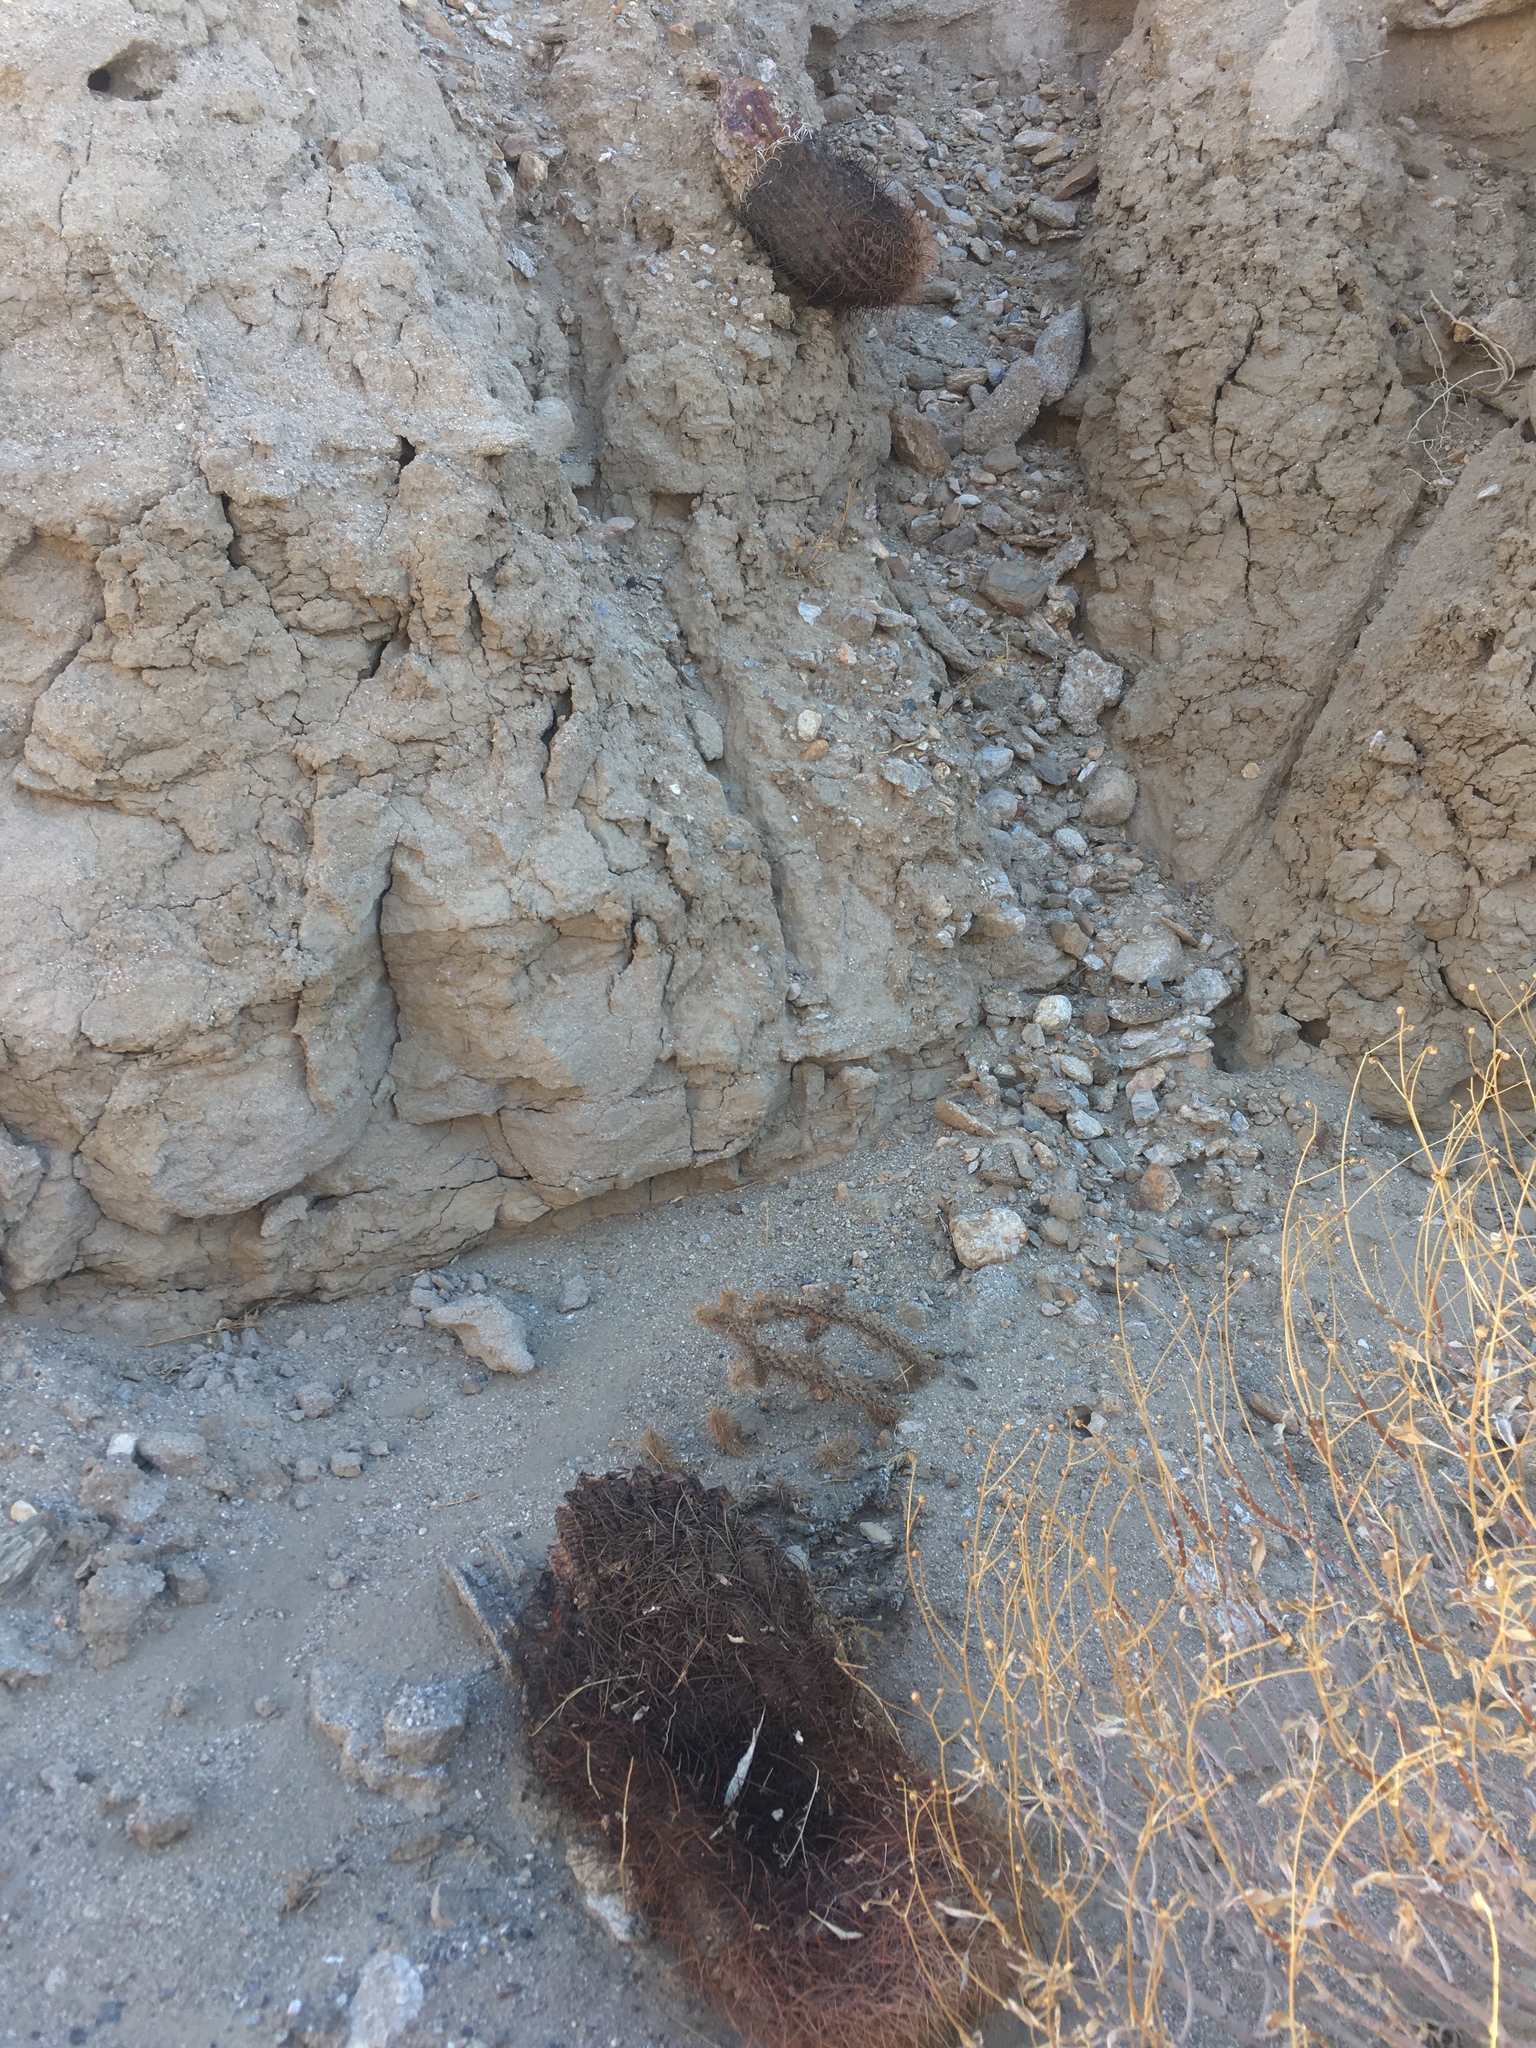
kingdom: Plantae
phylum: Tracheophyta
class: Magnoliopsida
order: Caryophyllales
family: Cactaceae
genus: Ferocactus
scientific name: Ferocactus cylindraceus
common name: California barrel cactus
